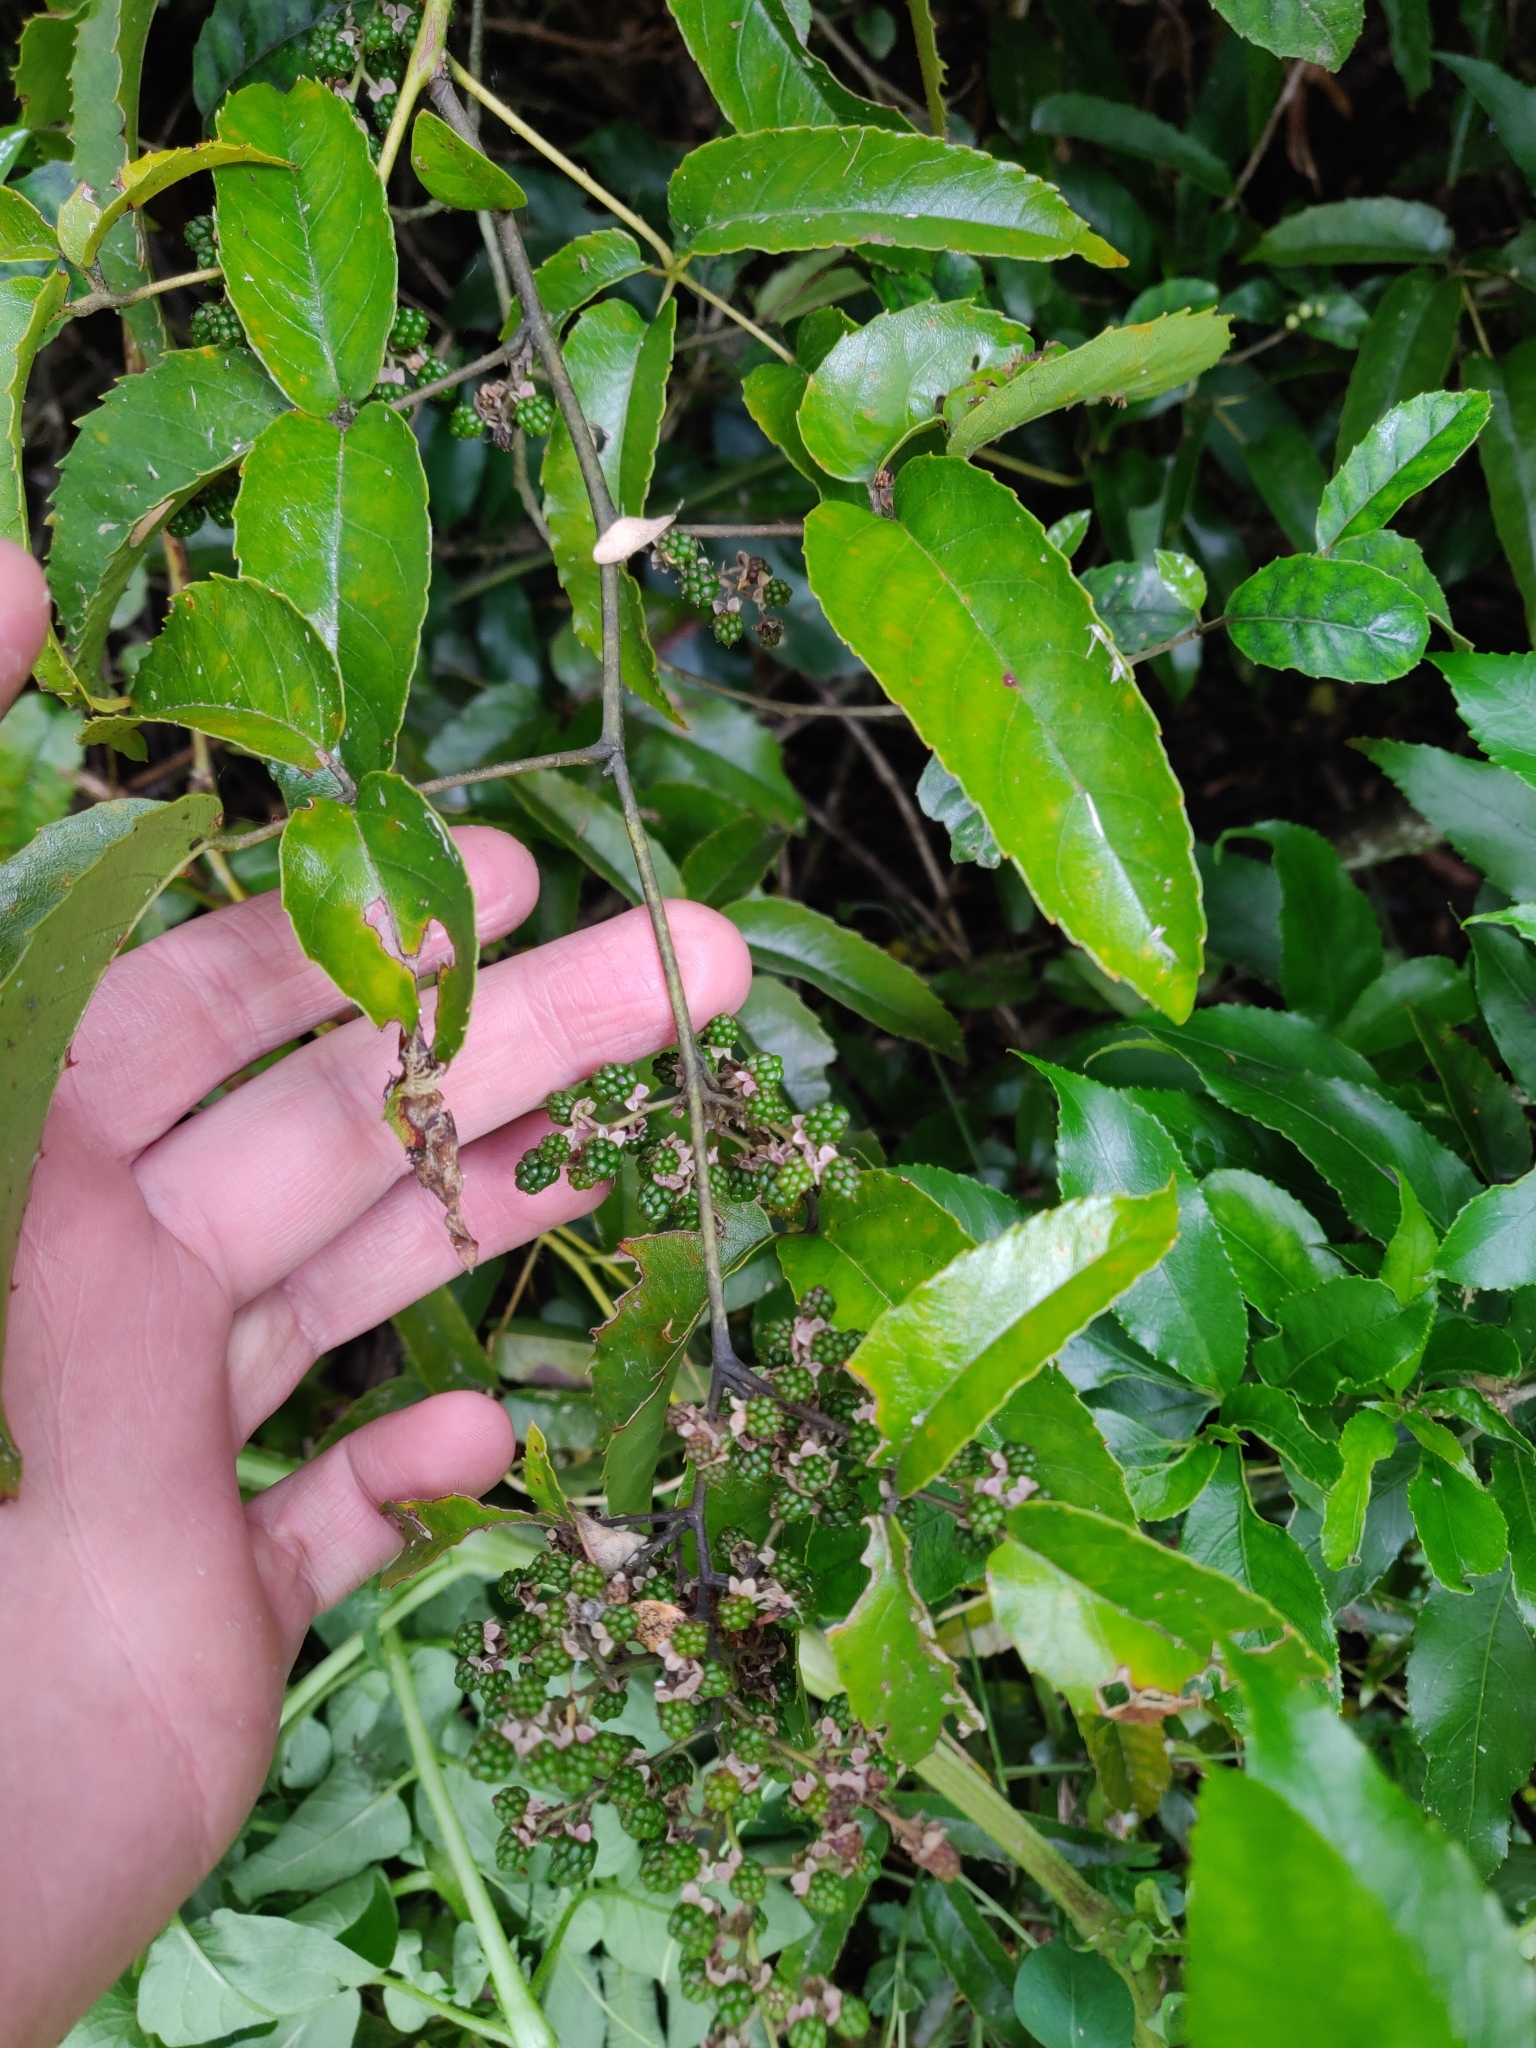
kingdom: Plantae
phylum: Tracheophyta
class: Magnoliopsida
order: Rosales
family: Rosaceae
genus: Rubus
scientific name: Rubus cissoides
